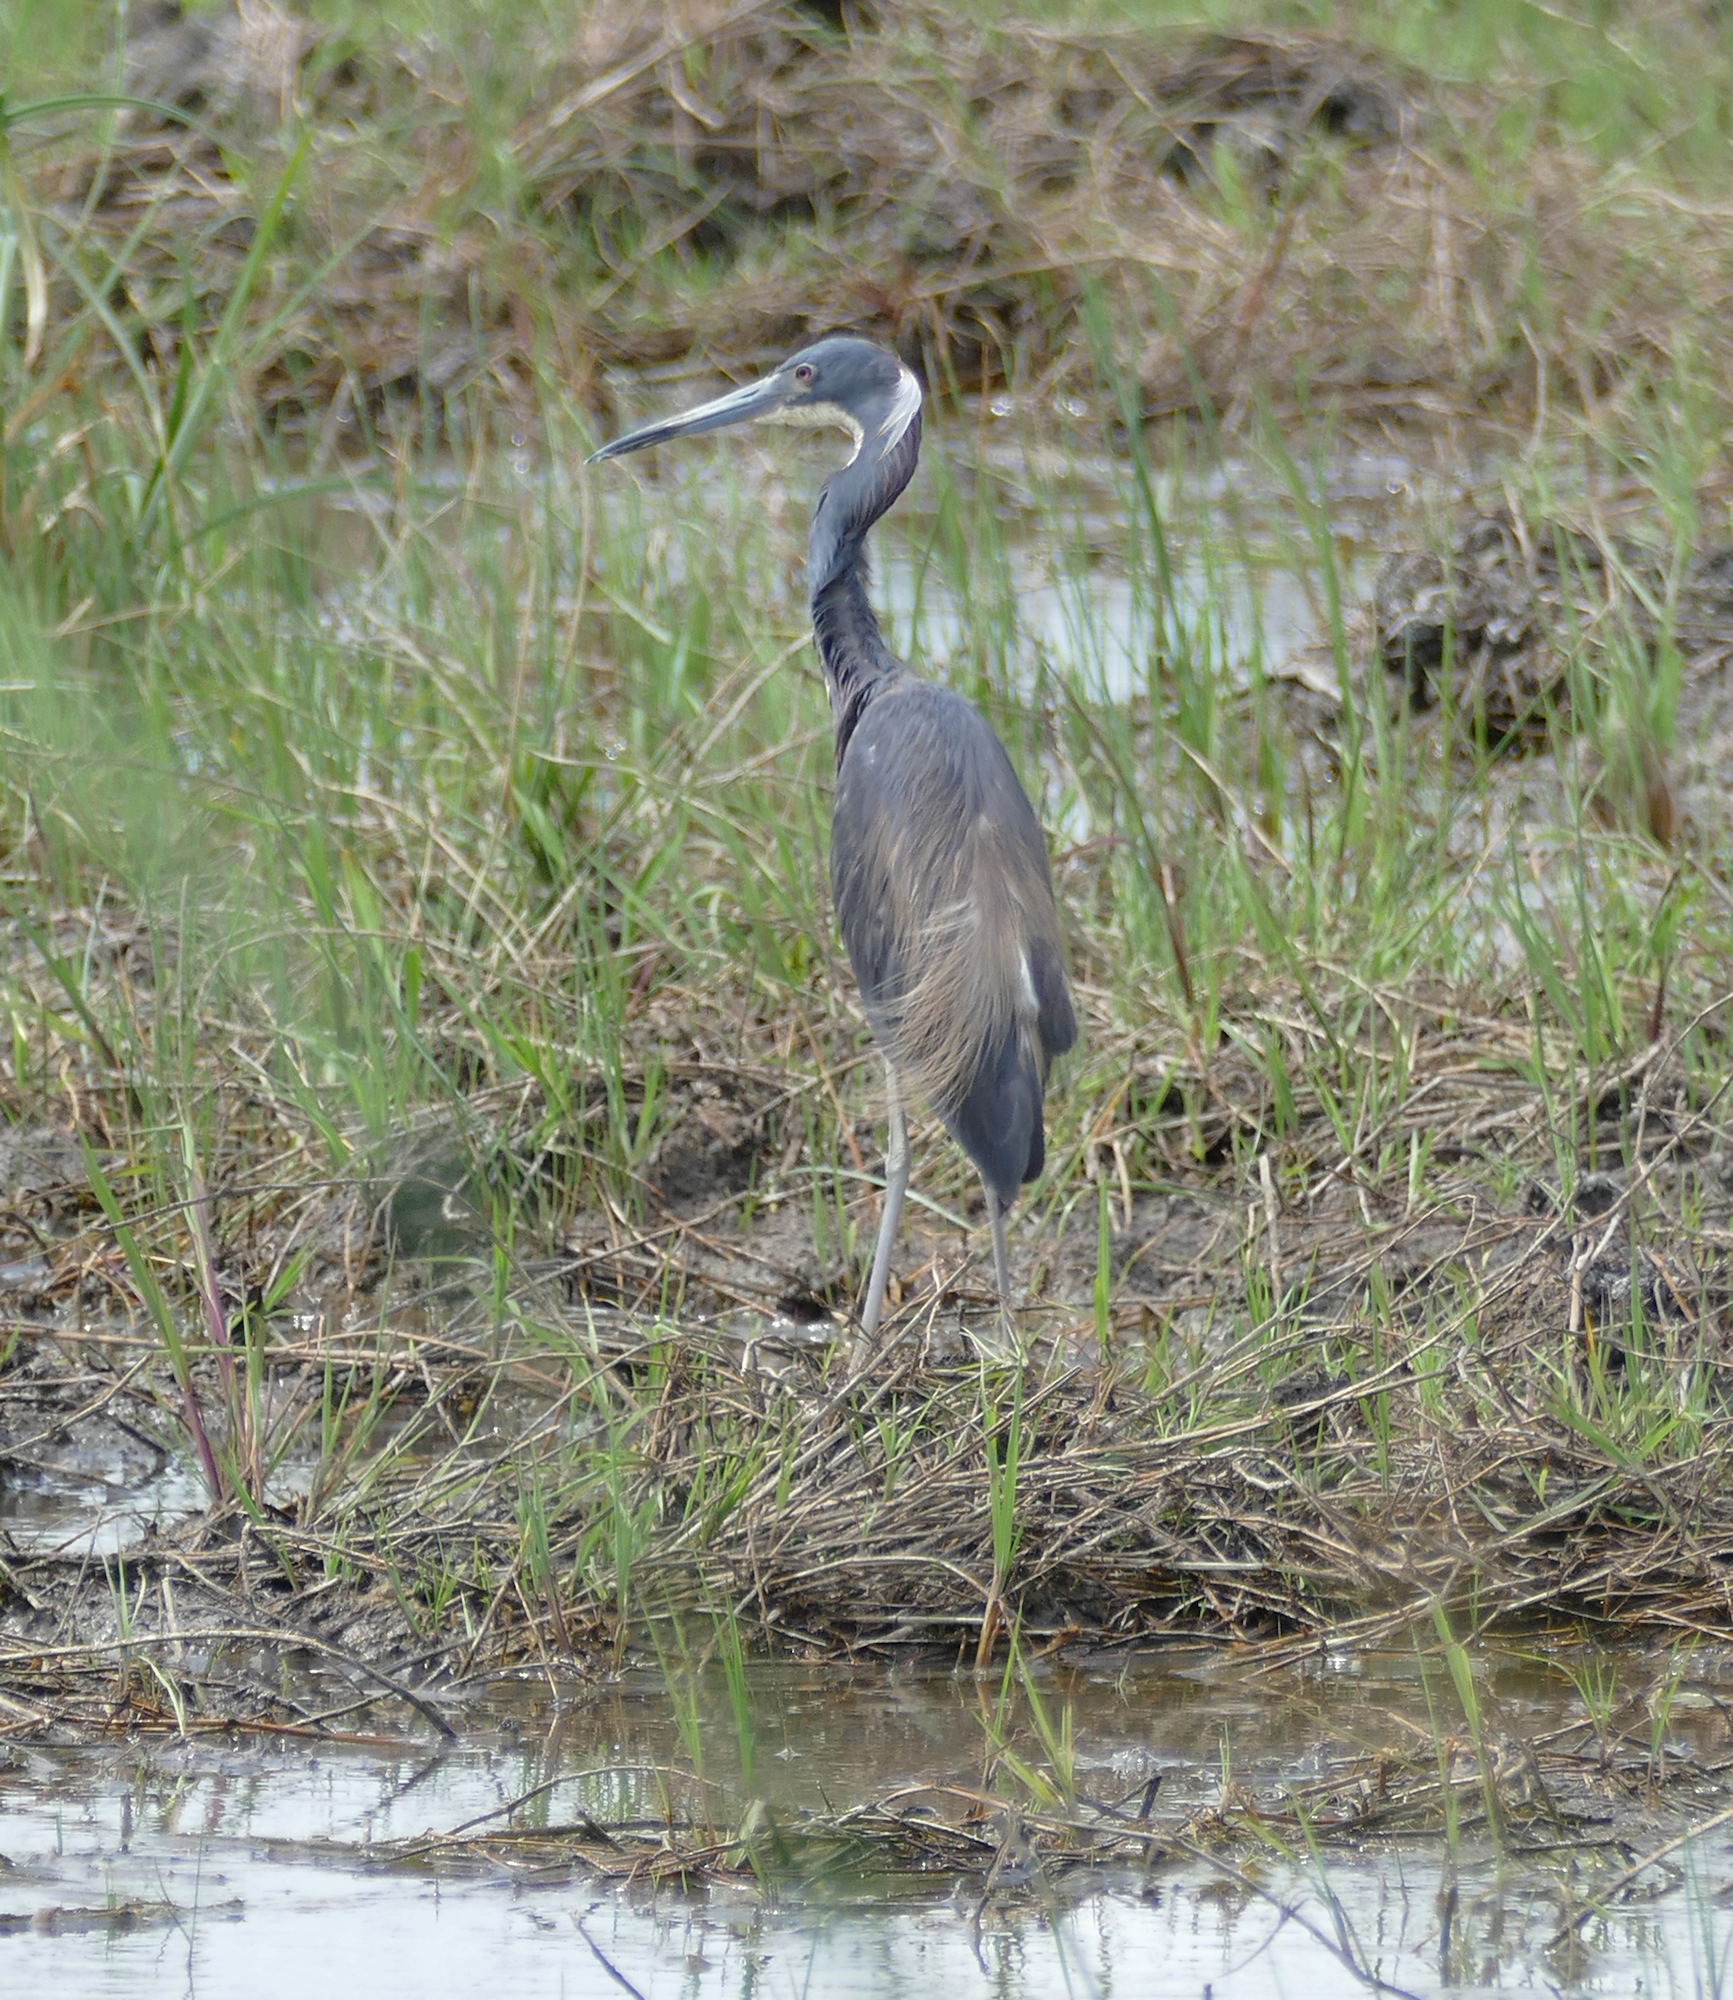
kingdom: Animalia
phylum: Chordata
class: Aves
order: Pelecaniformes
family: Ardeidae
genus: Egretta
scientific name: Egretta tricolor
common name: Tricolored heron
